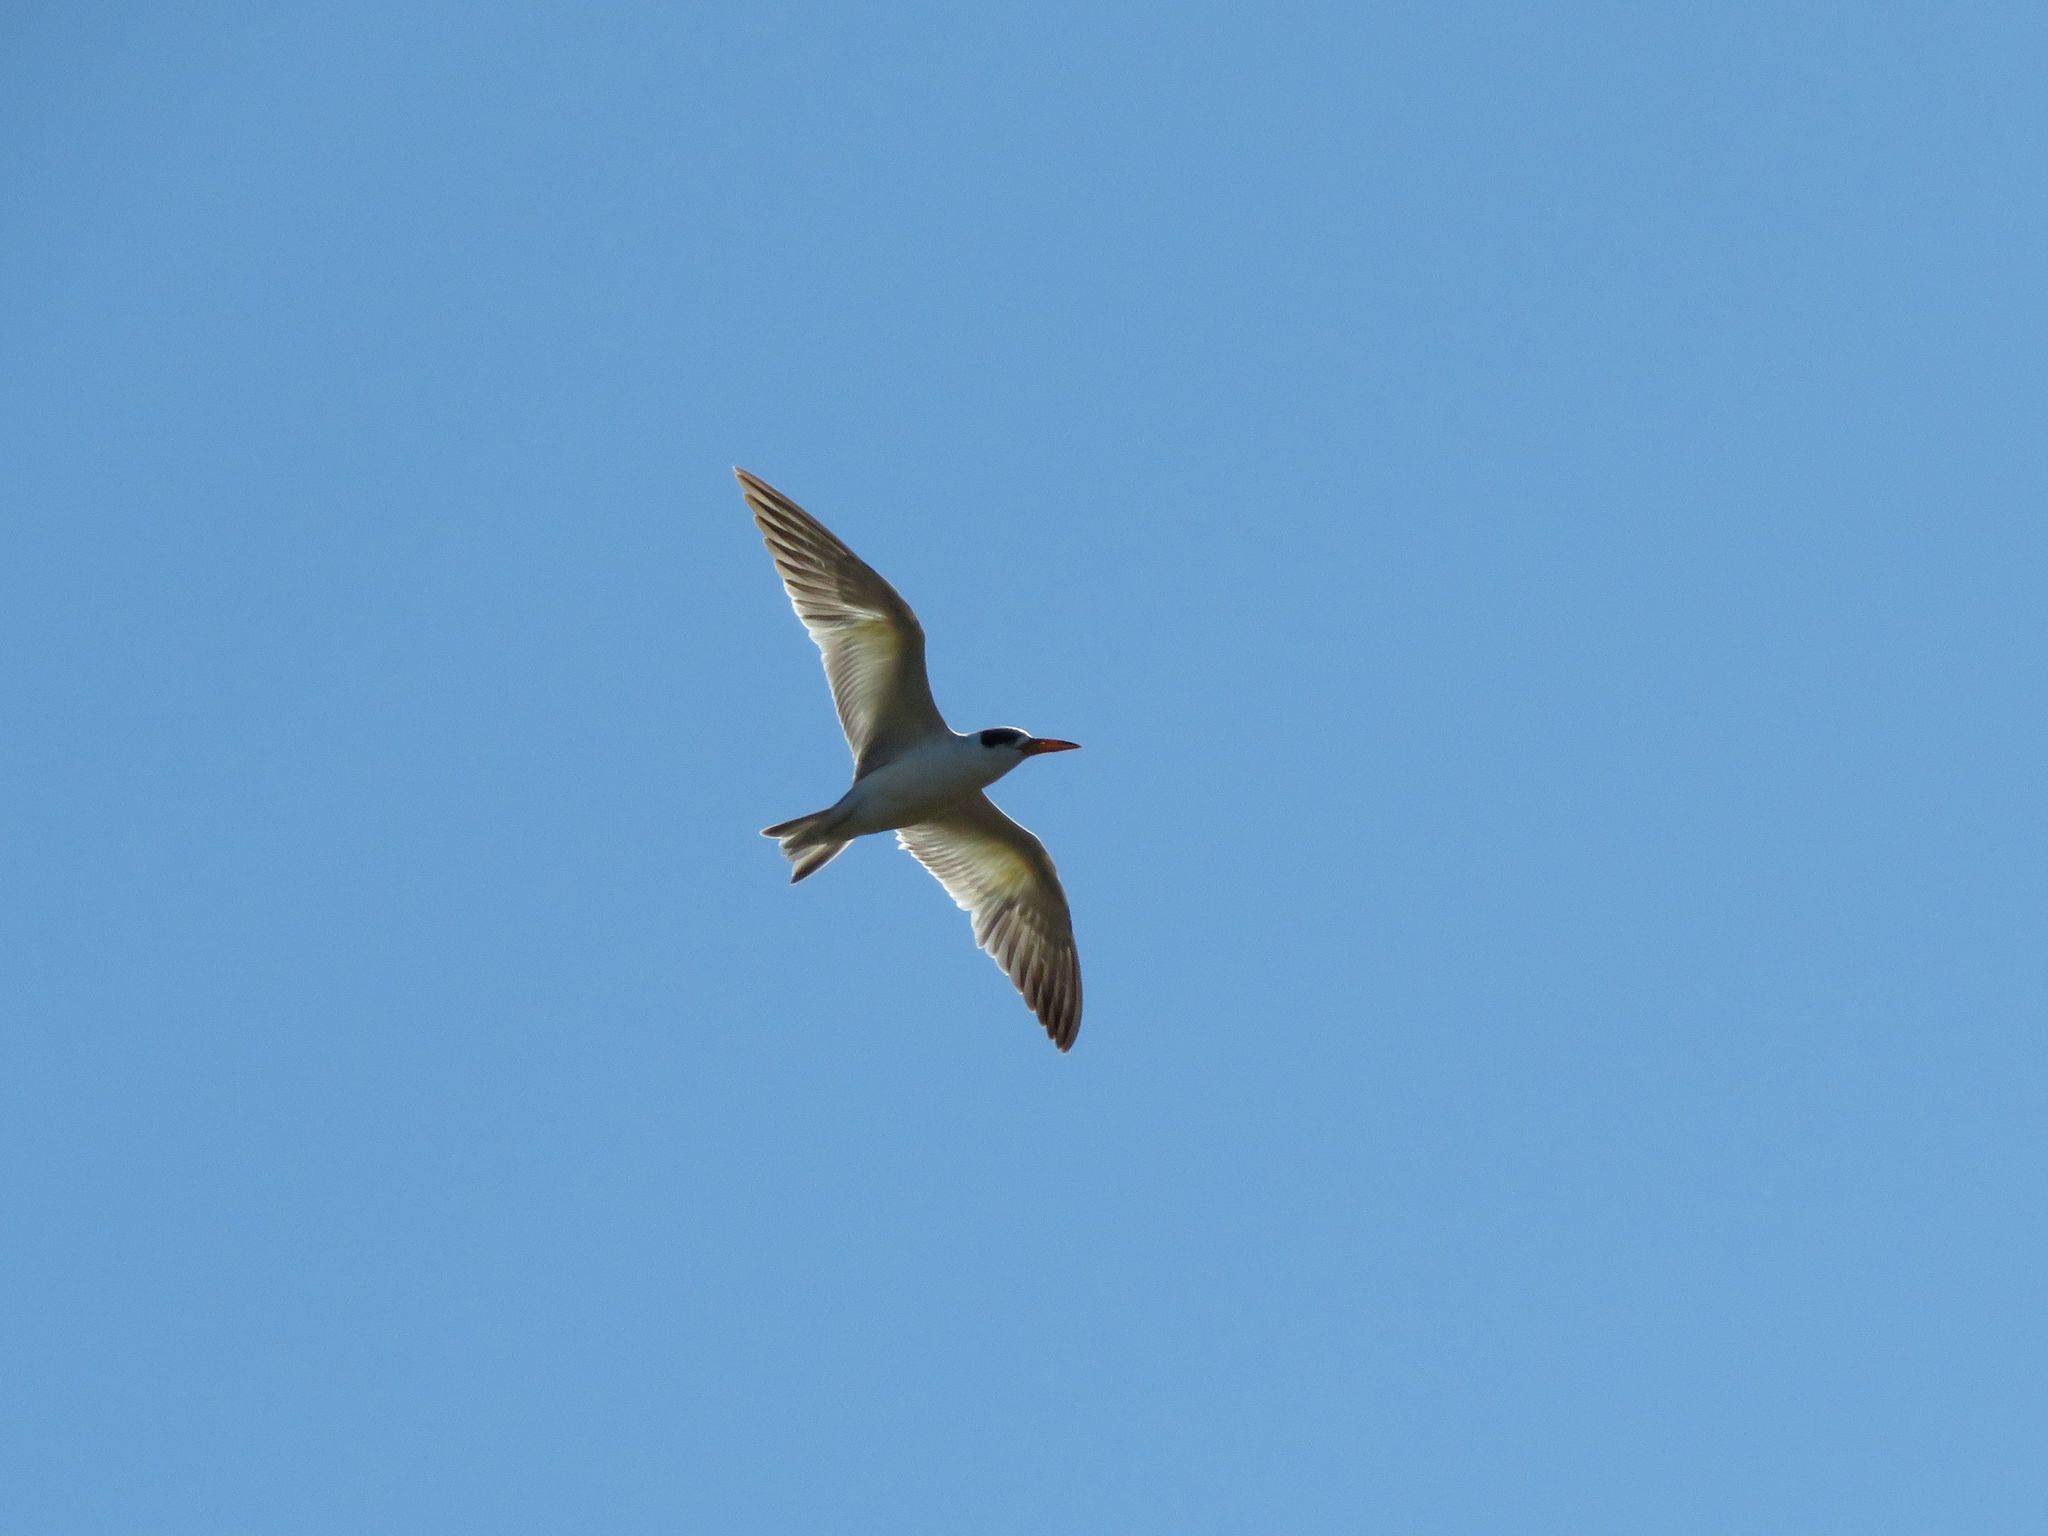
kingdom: Animalia
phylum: Chordata
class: Aves
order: Charadriiformes
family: Laridae
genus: Phaetusa
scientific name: Phaetusa simplex
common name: Large-billed tern
